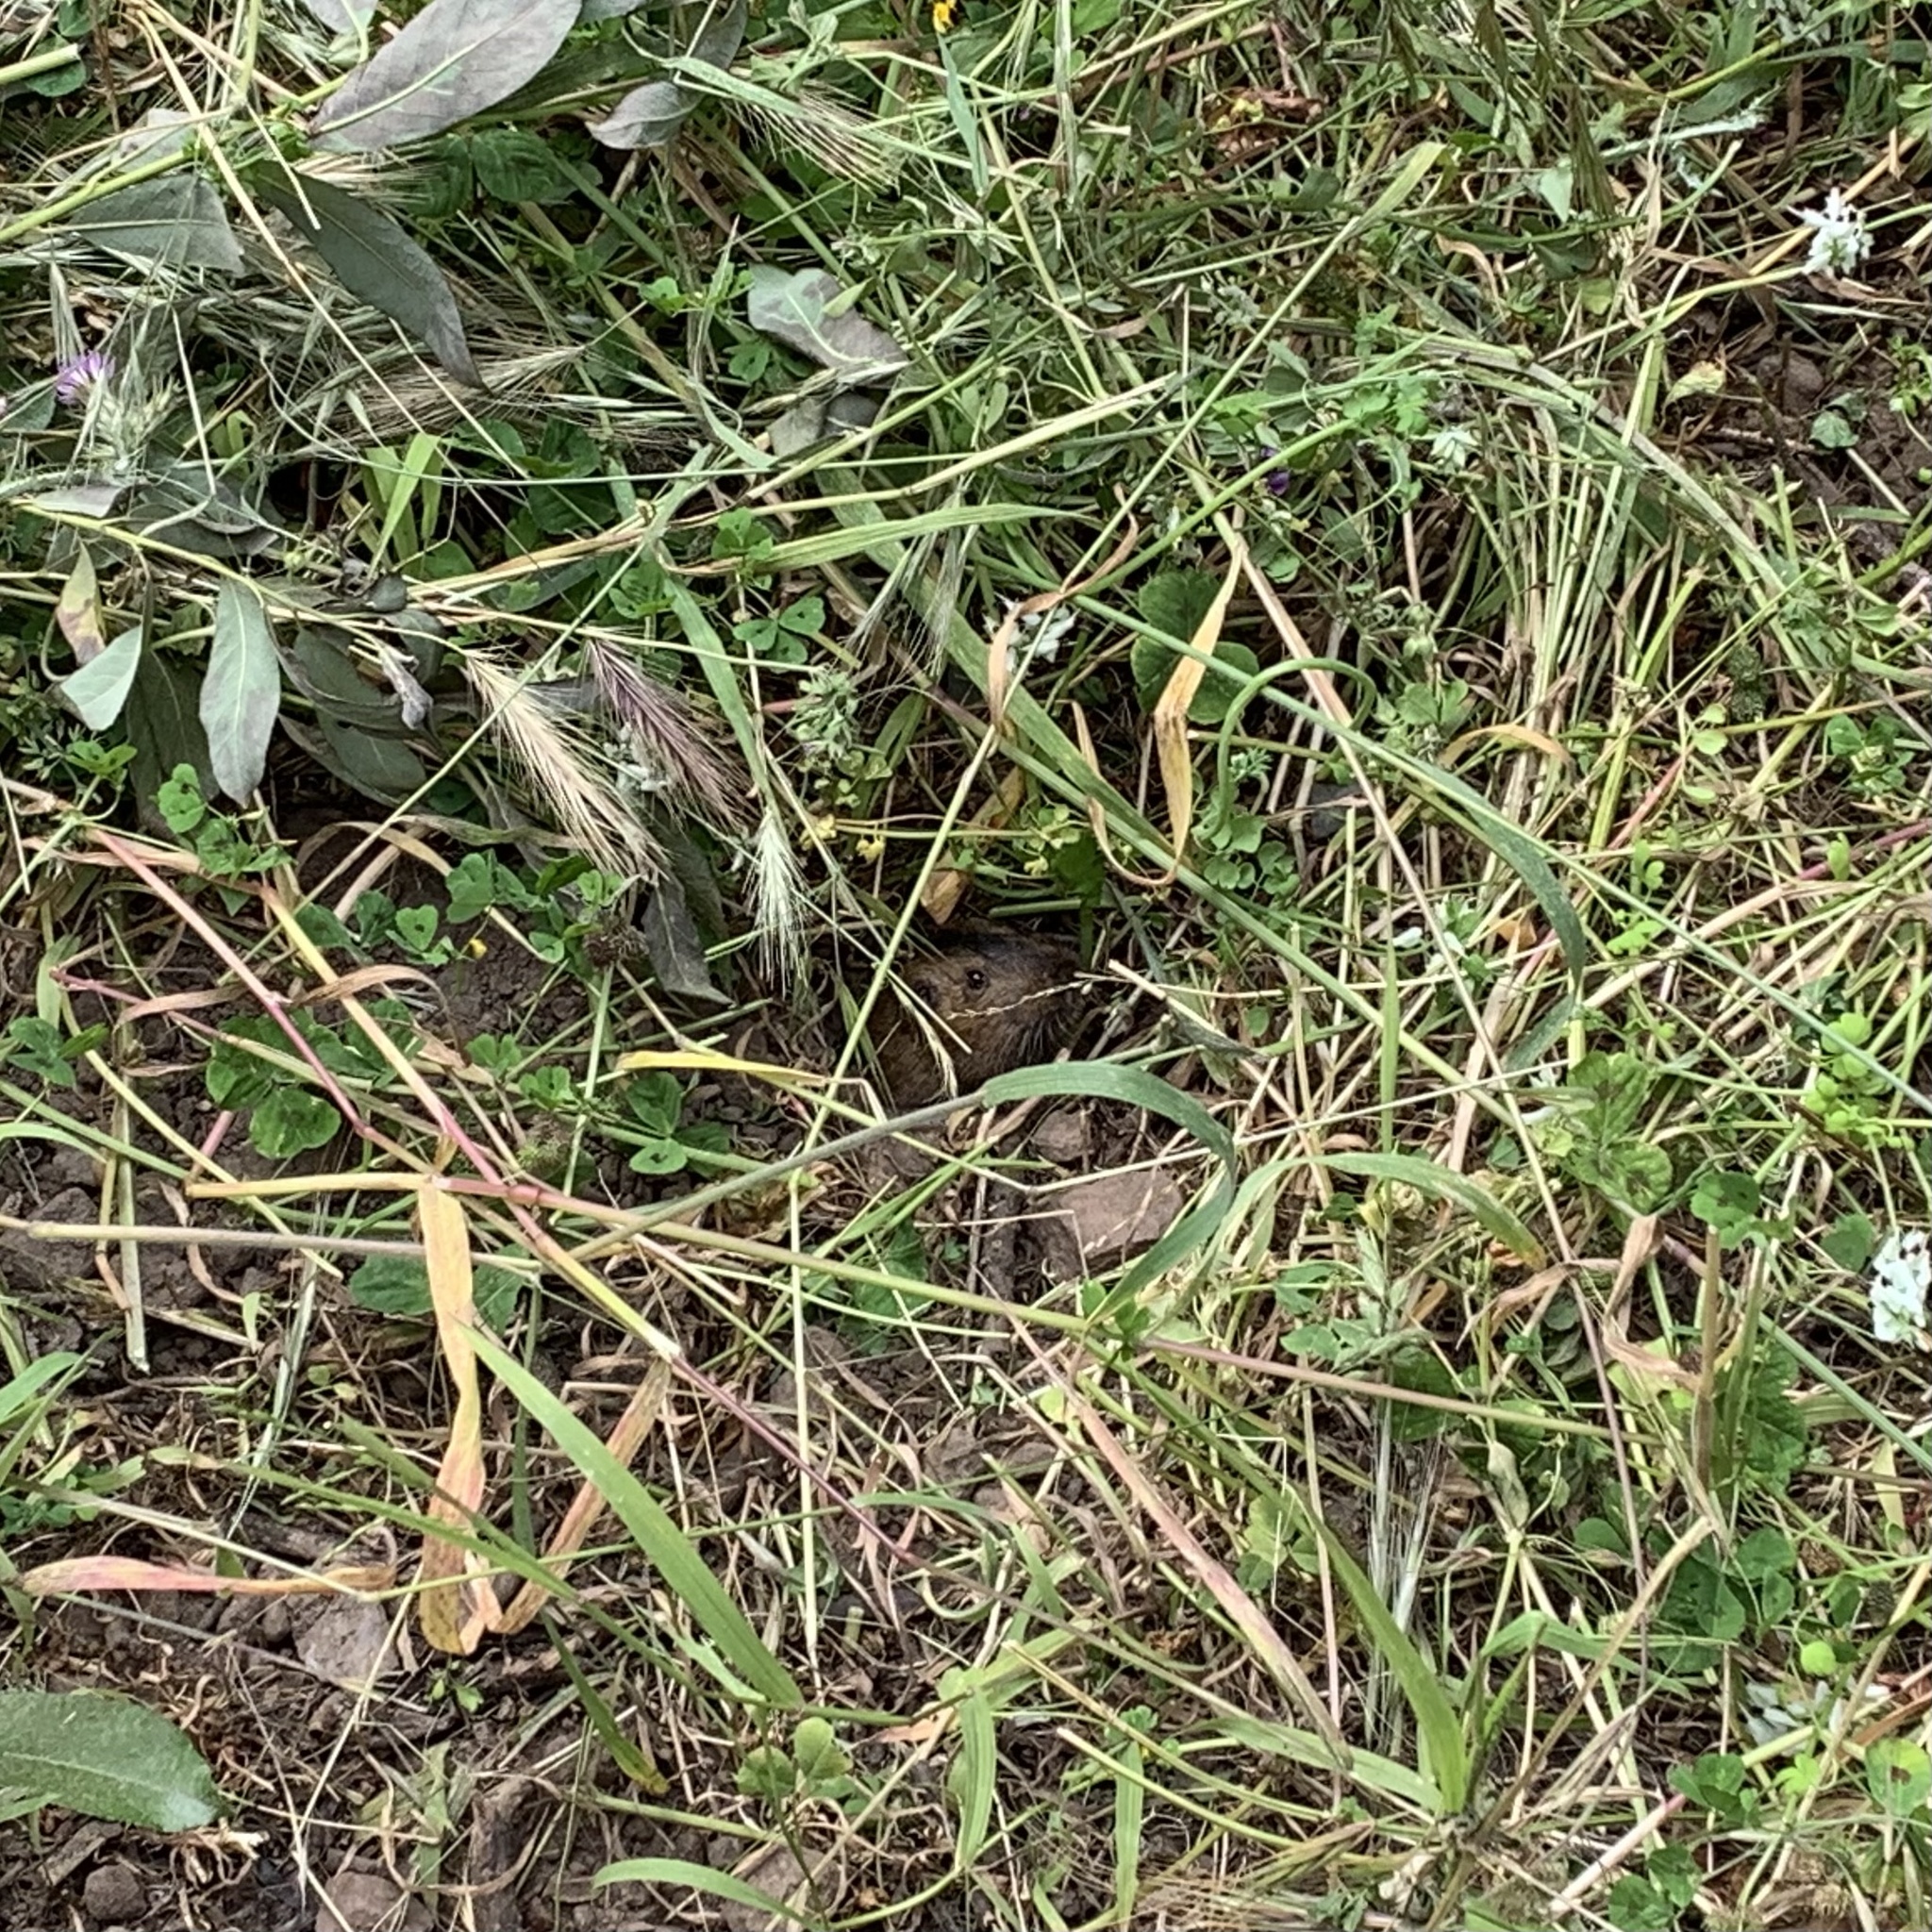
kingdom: Animalia
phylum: Chordata
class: Mammalia
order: Rodentia
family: Geomyidae
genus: Thomomys
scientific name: Thomomys bottae
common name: Botta's pocket gopher
